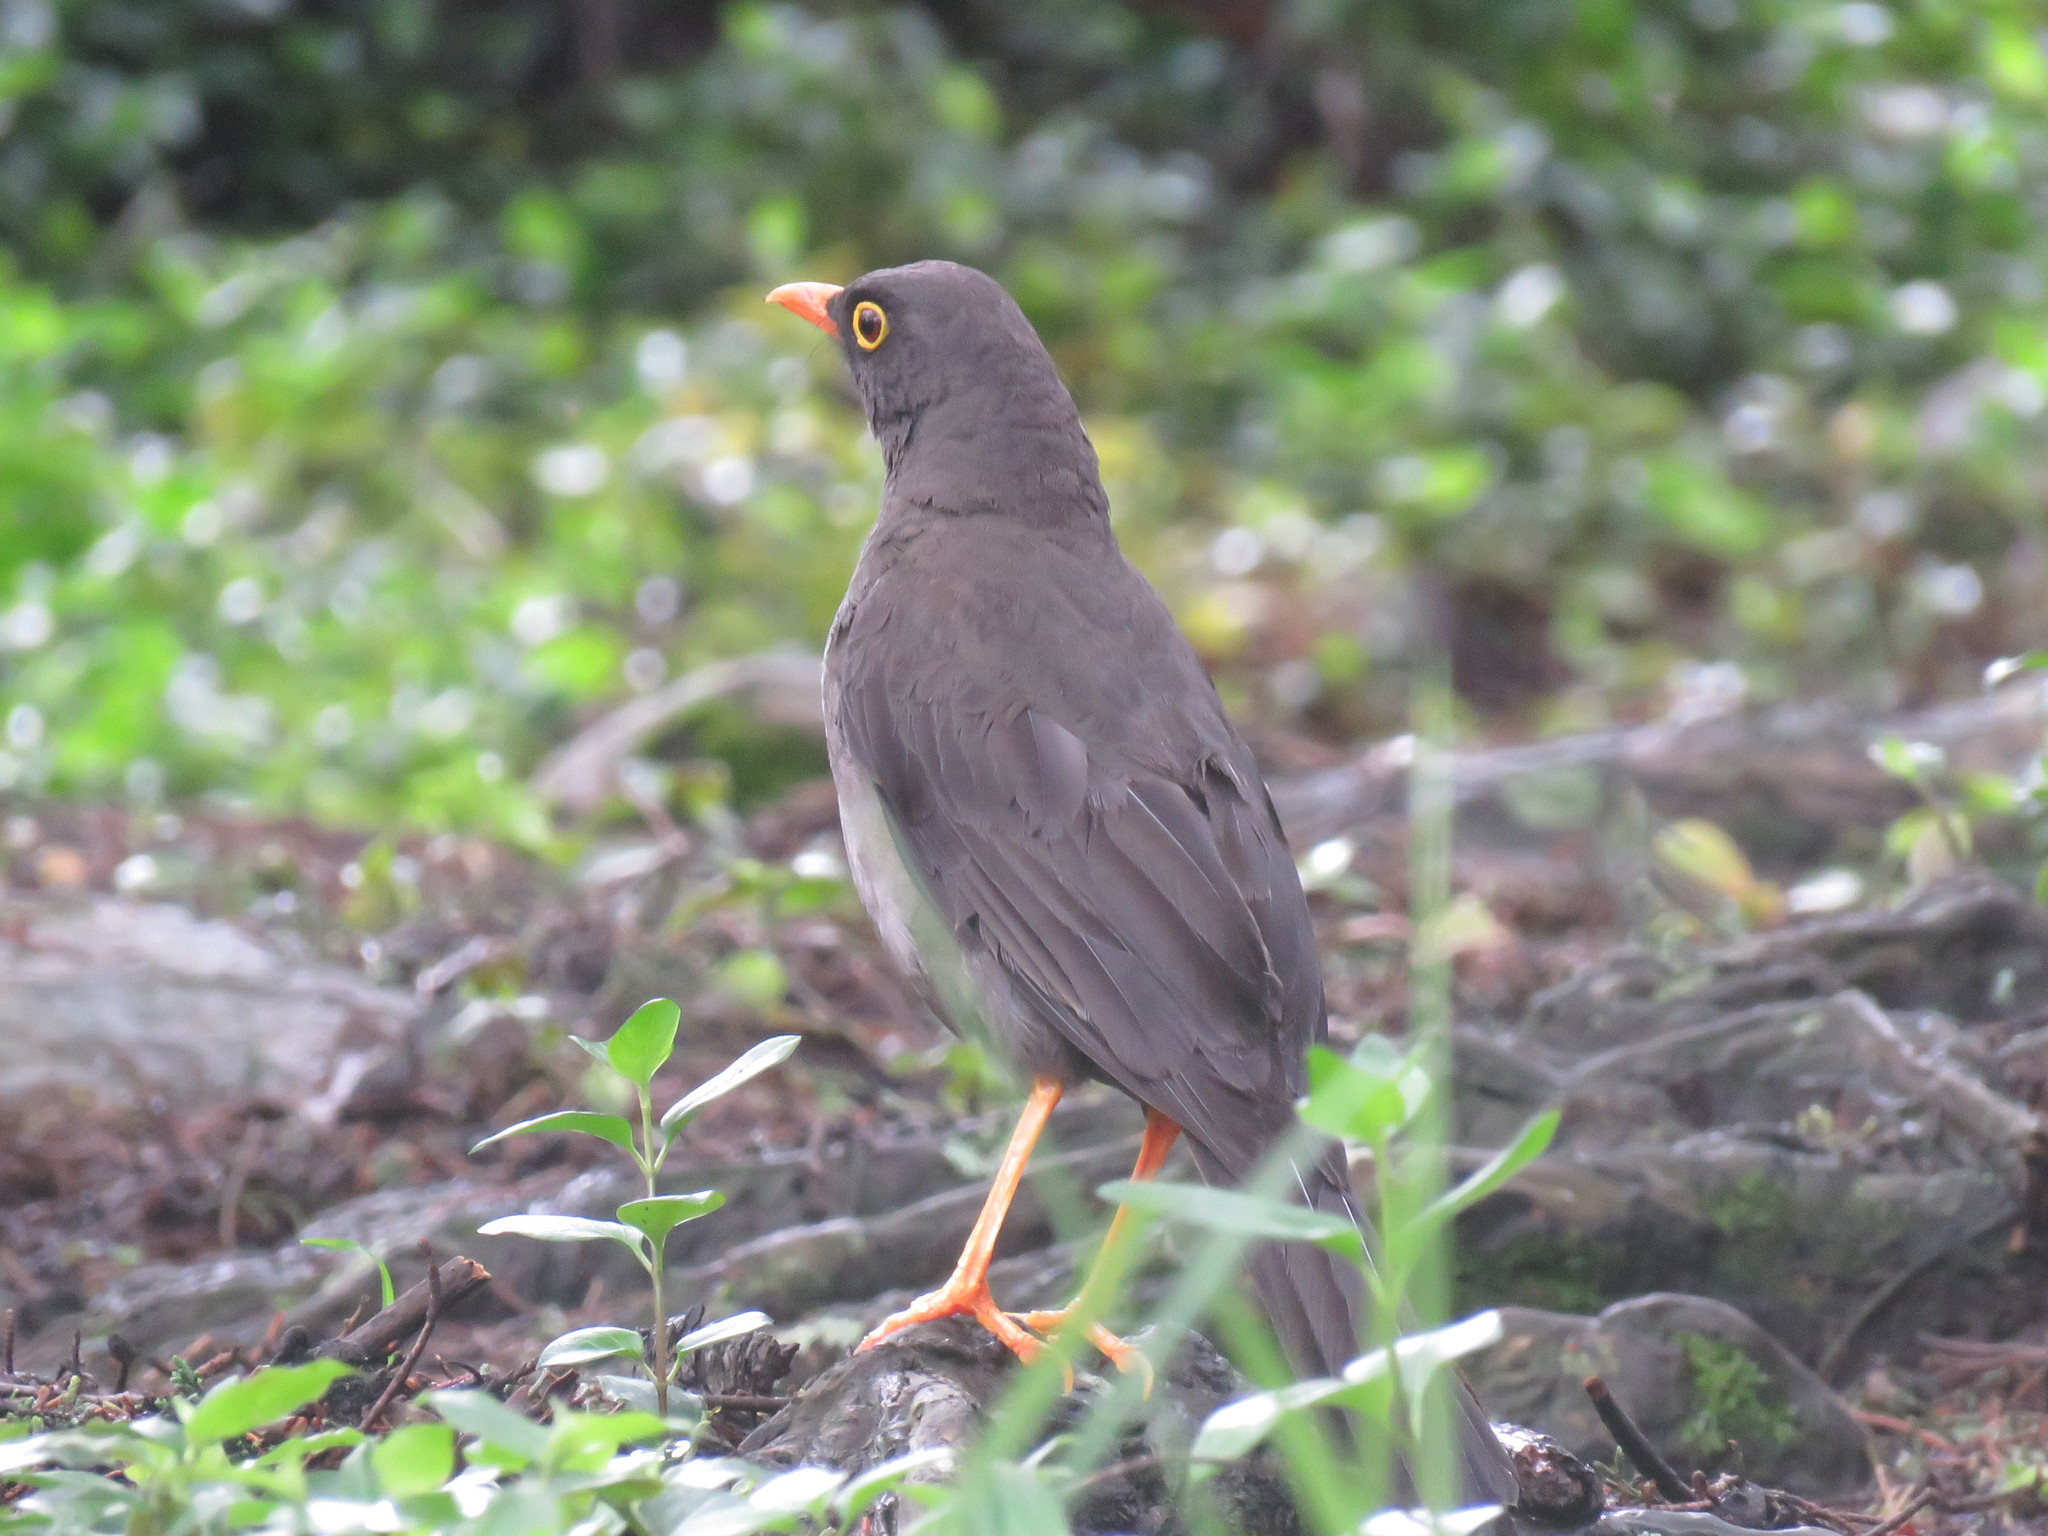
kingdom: Animalia
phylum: Chordata
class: Aves
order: Passeriformes
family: Turdidae
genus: Turdus
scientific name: Turdus fuscater
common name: Great thrush
